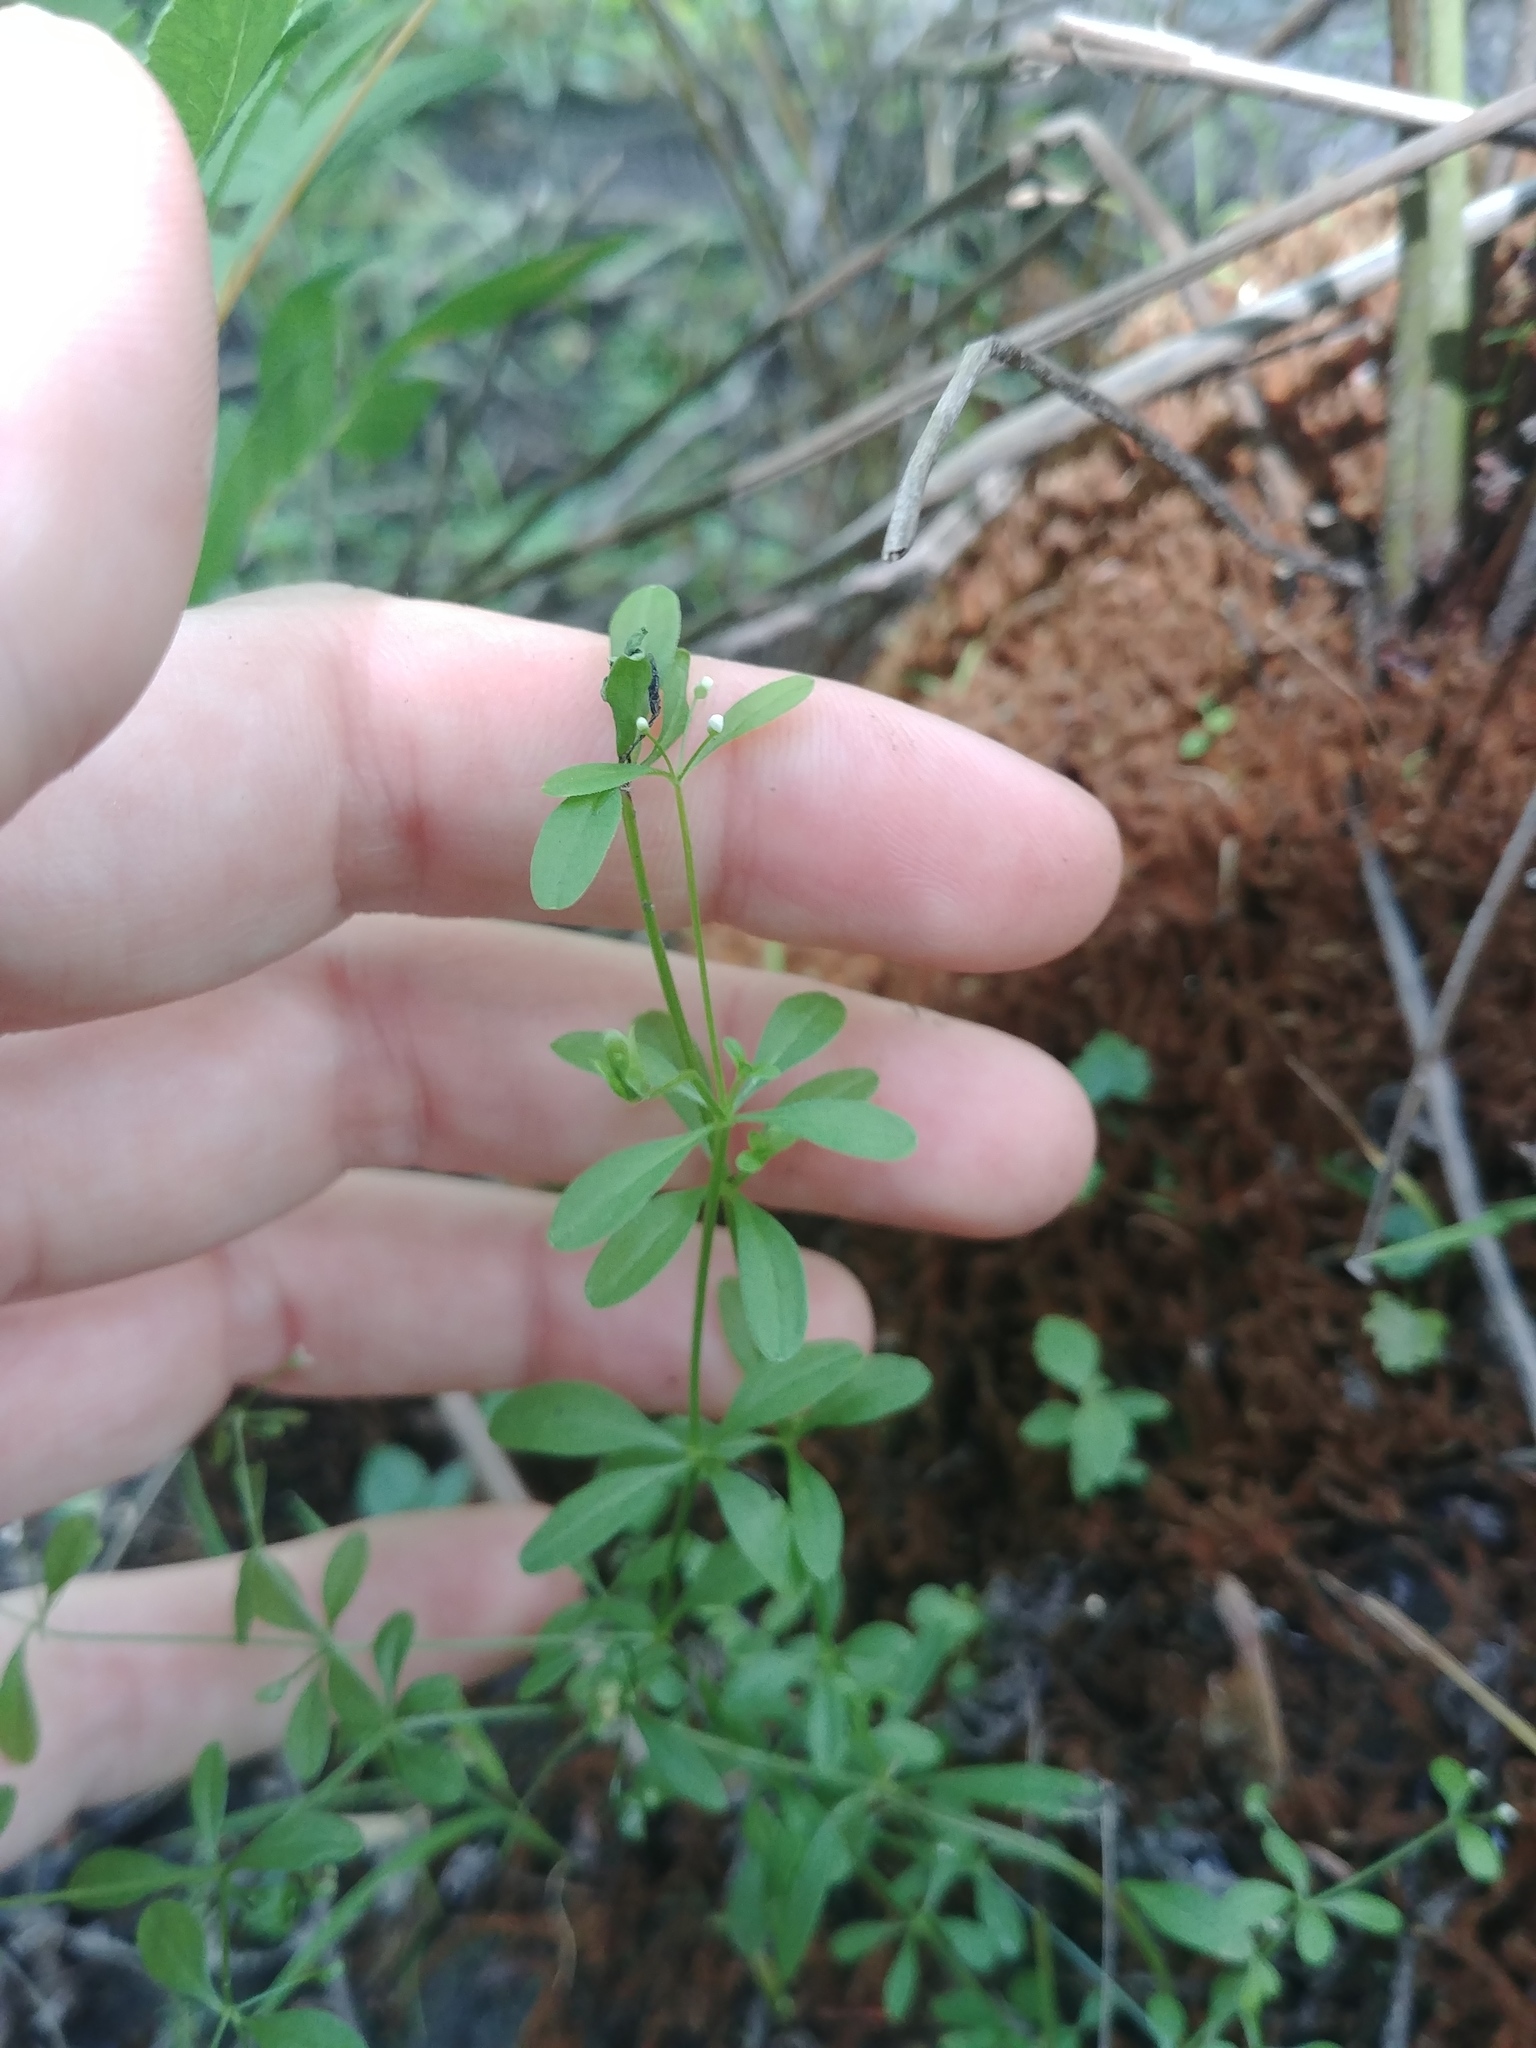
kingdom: Plantae
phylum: Tracheophyta
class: Magnoliopsida
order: Gentianales
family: Rubiaceae
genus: Galium
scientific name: Galium palustre
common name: Common marsh-bedstraw
